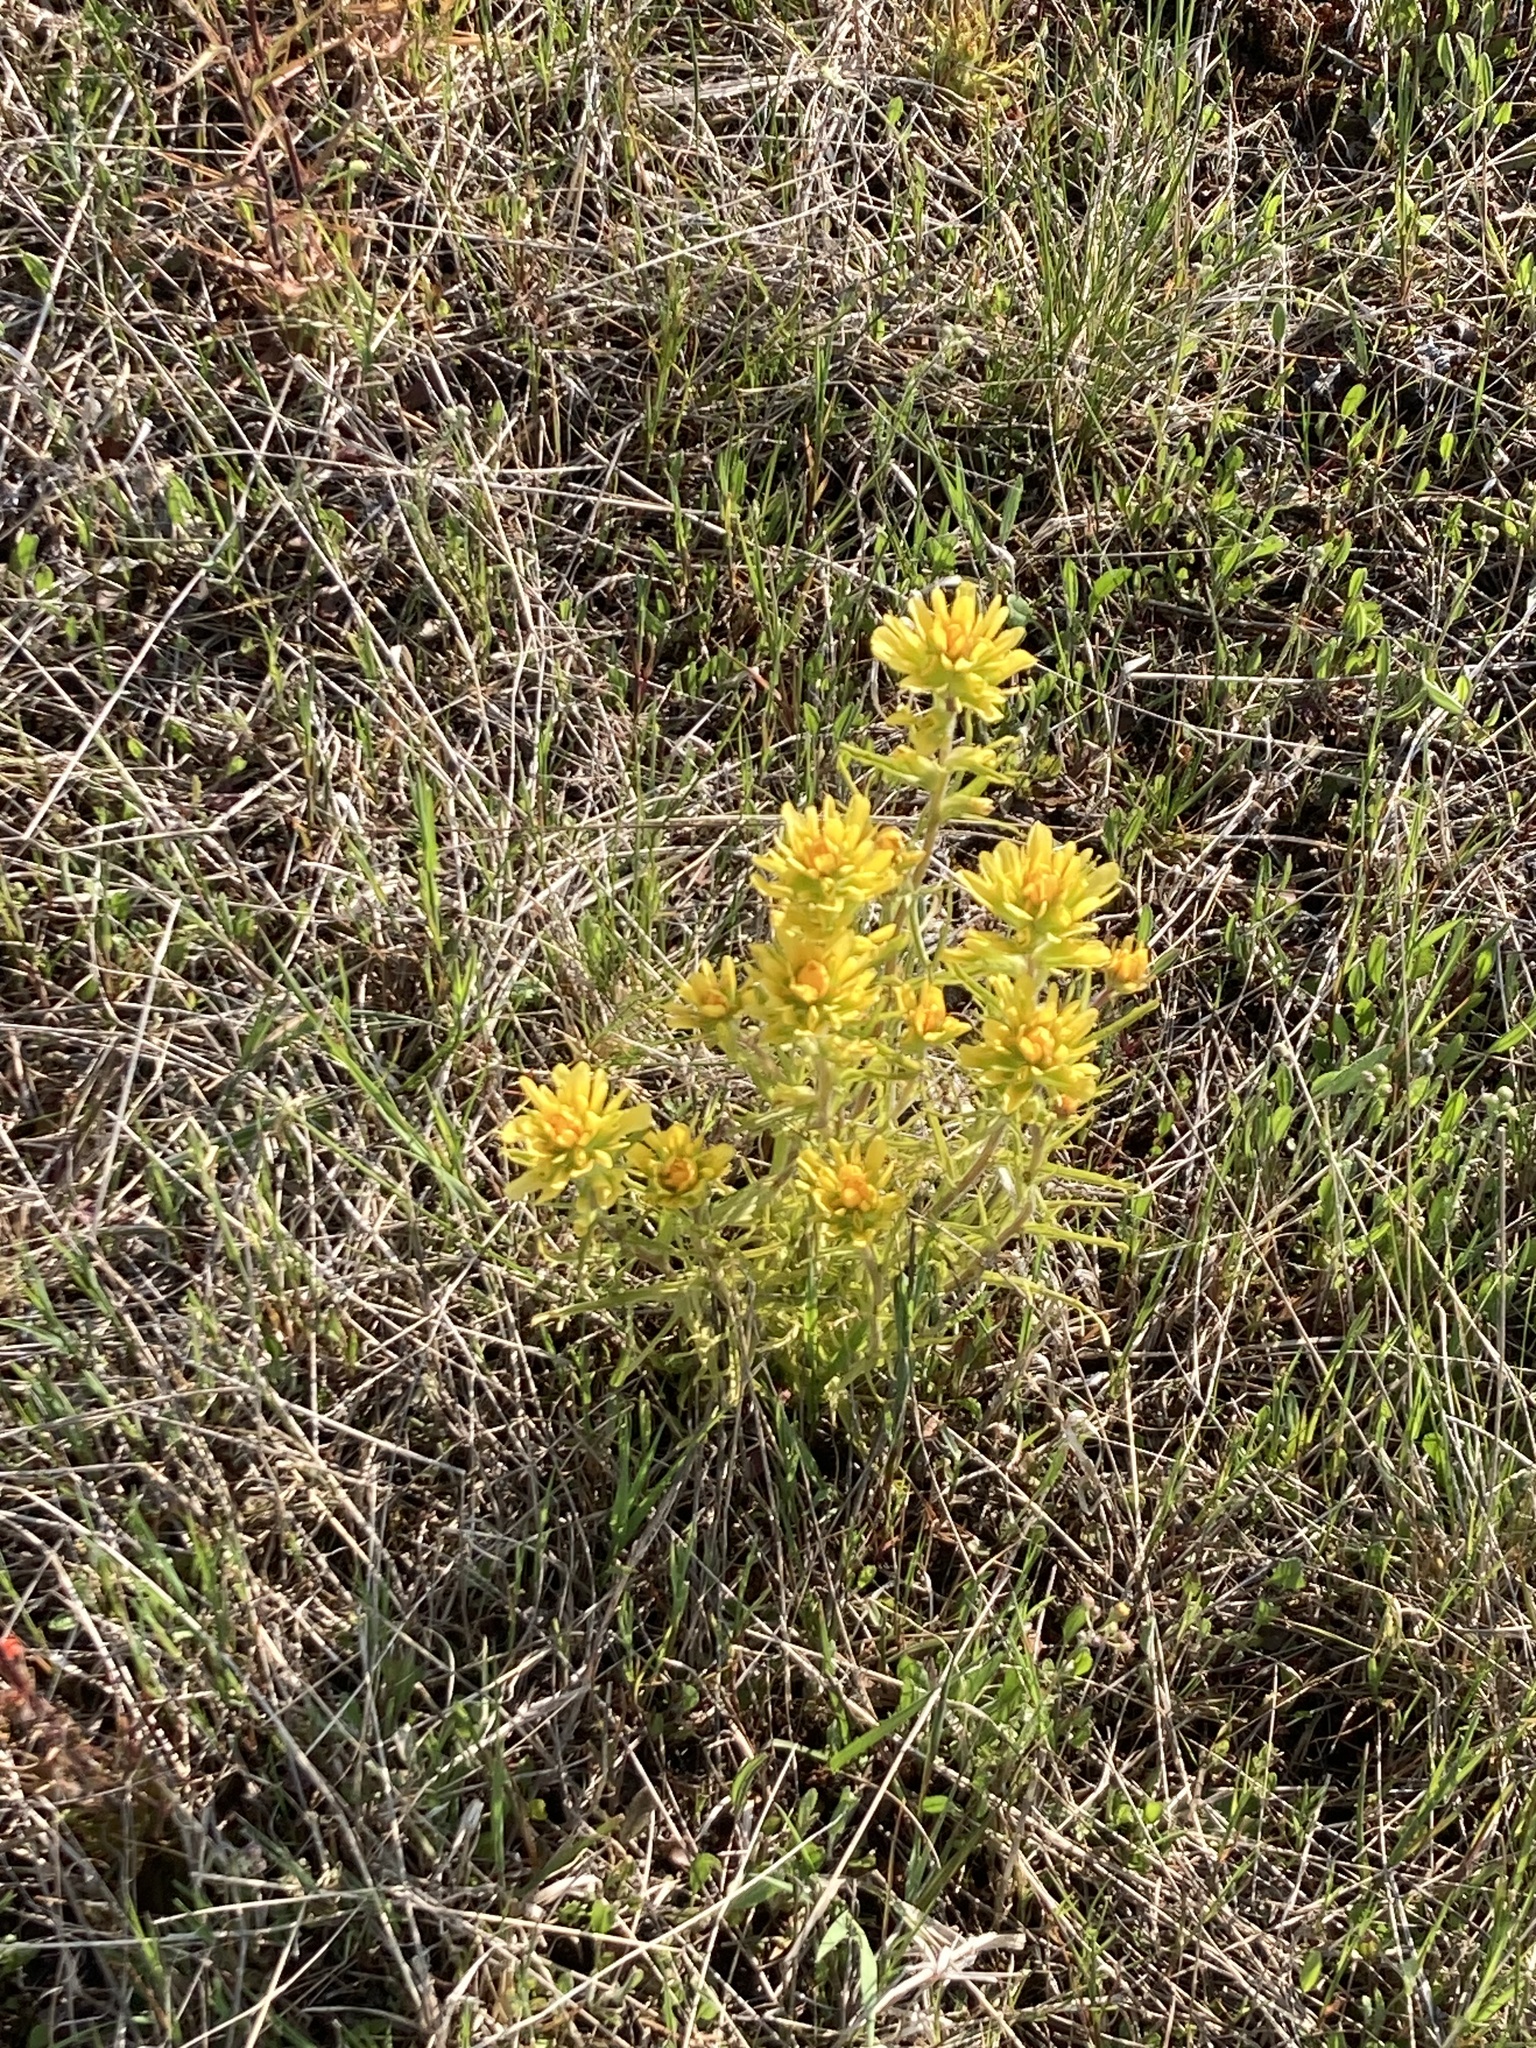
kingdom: Plantae
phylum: Tracheophyta
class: Magnoliopsida
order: Lamiales
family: Orobanchaceae
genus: Castilleja
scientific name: Castilleja coccinea
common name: Scarlet paintbrush
